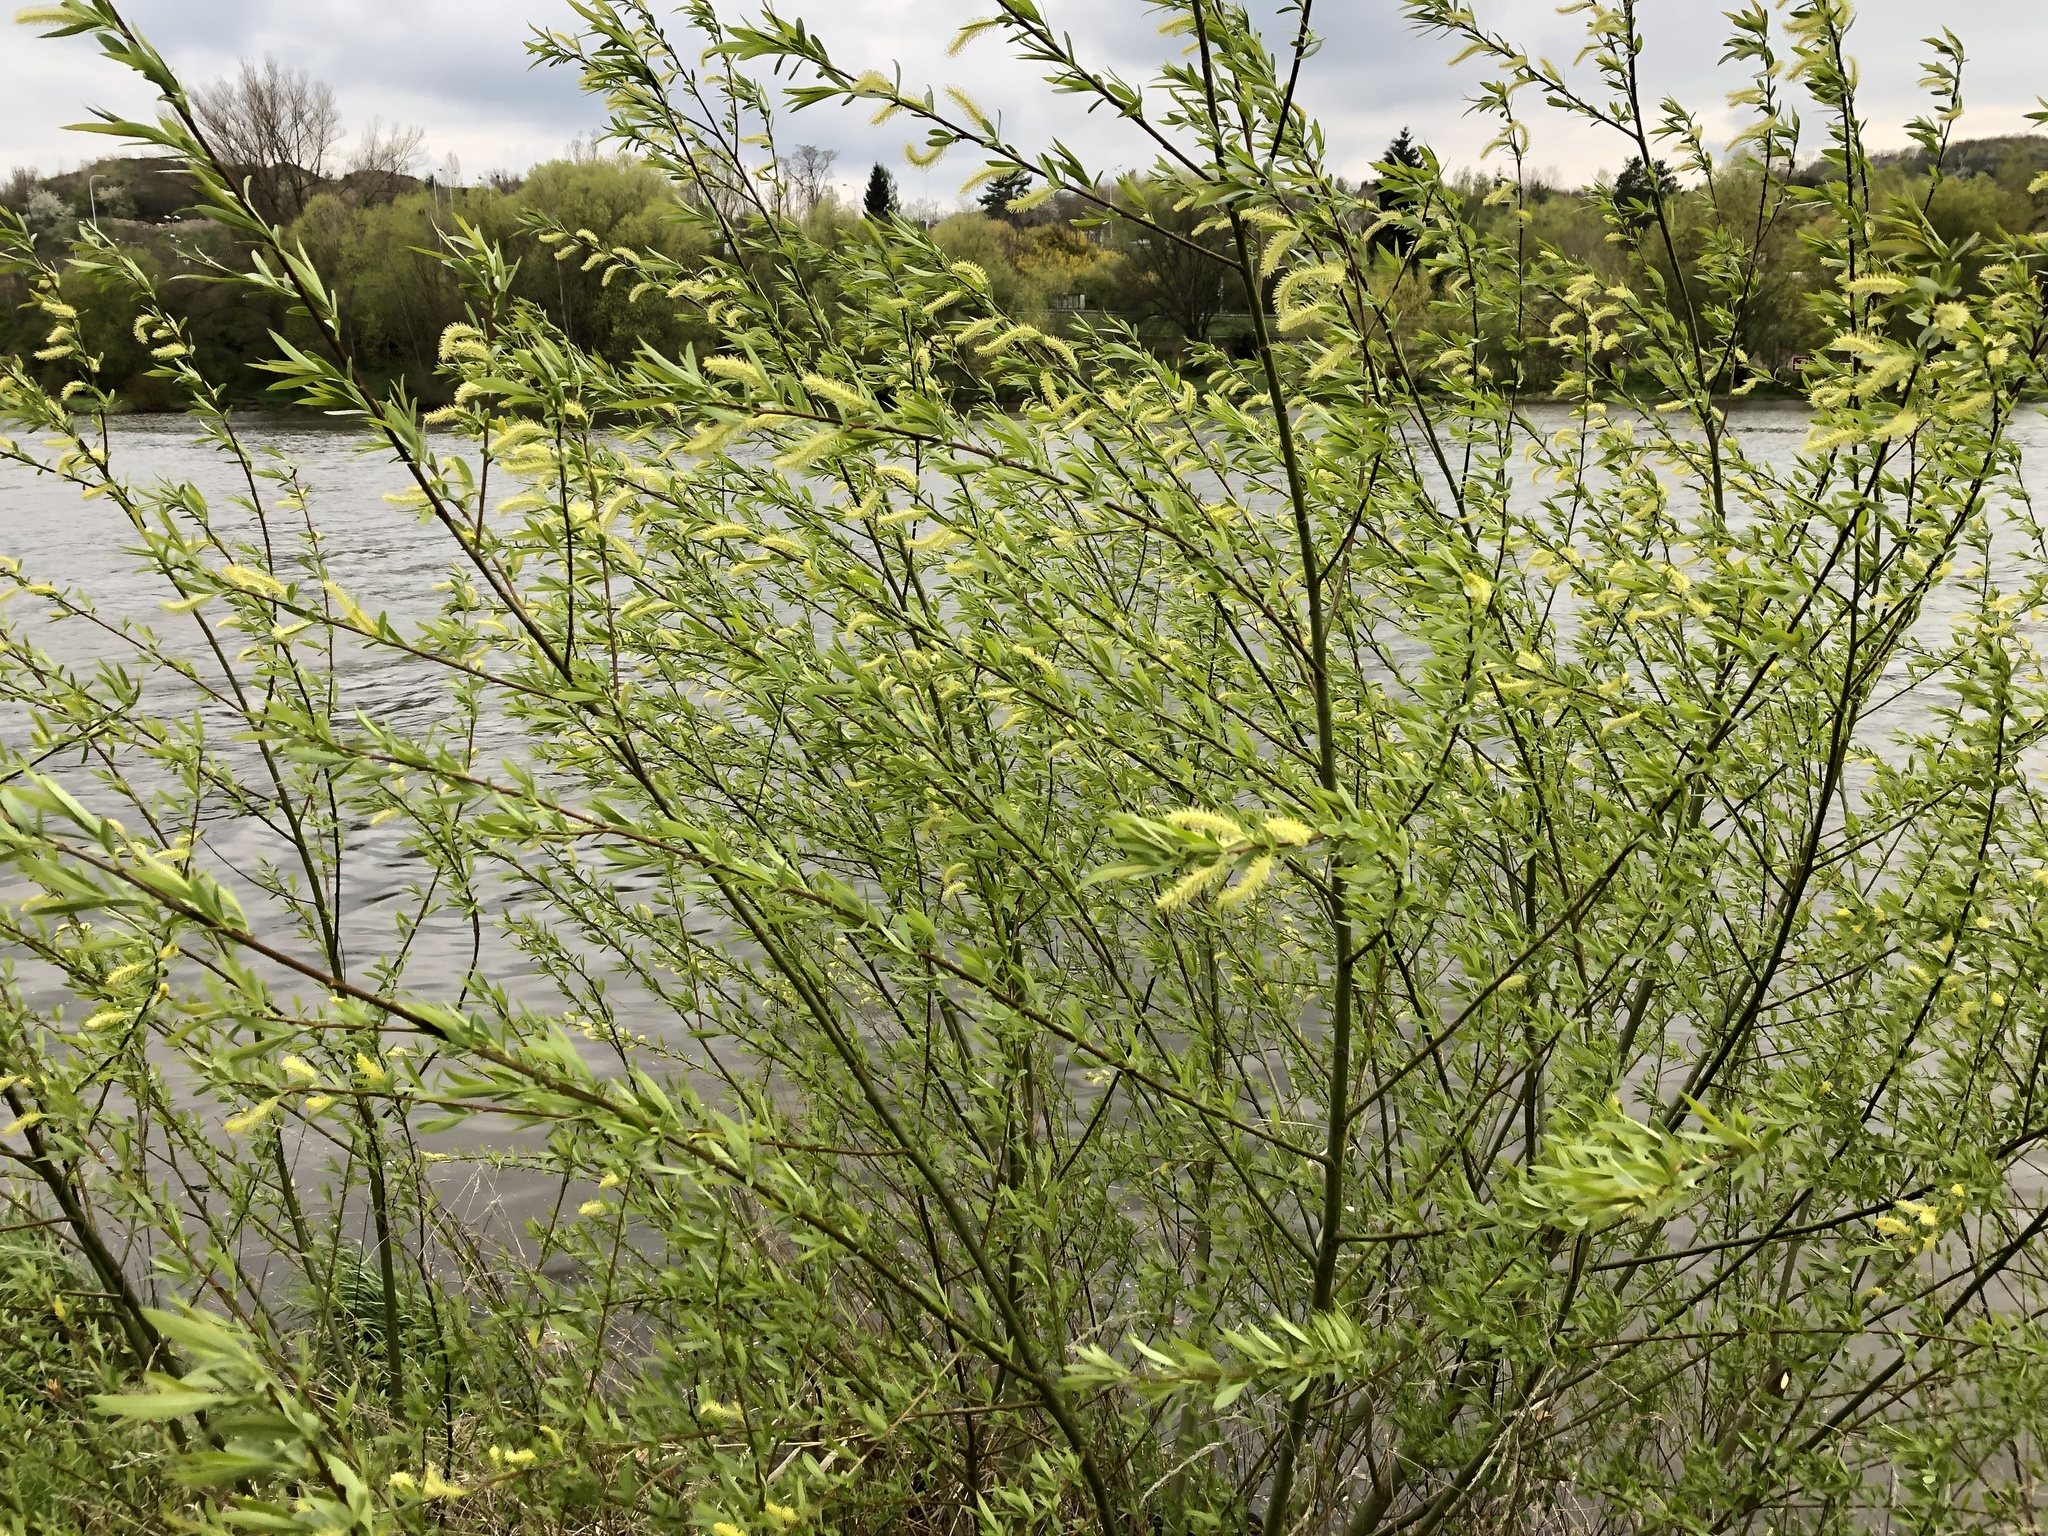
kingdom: Plantae
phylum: Tracheophyta
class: Magnoliopsida
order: Malpighiales
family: Salicaceae
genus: Salix
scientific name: Salix alba
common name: White willow
